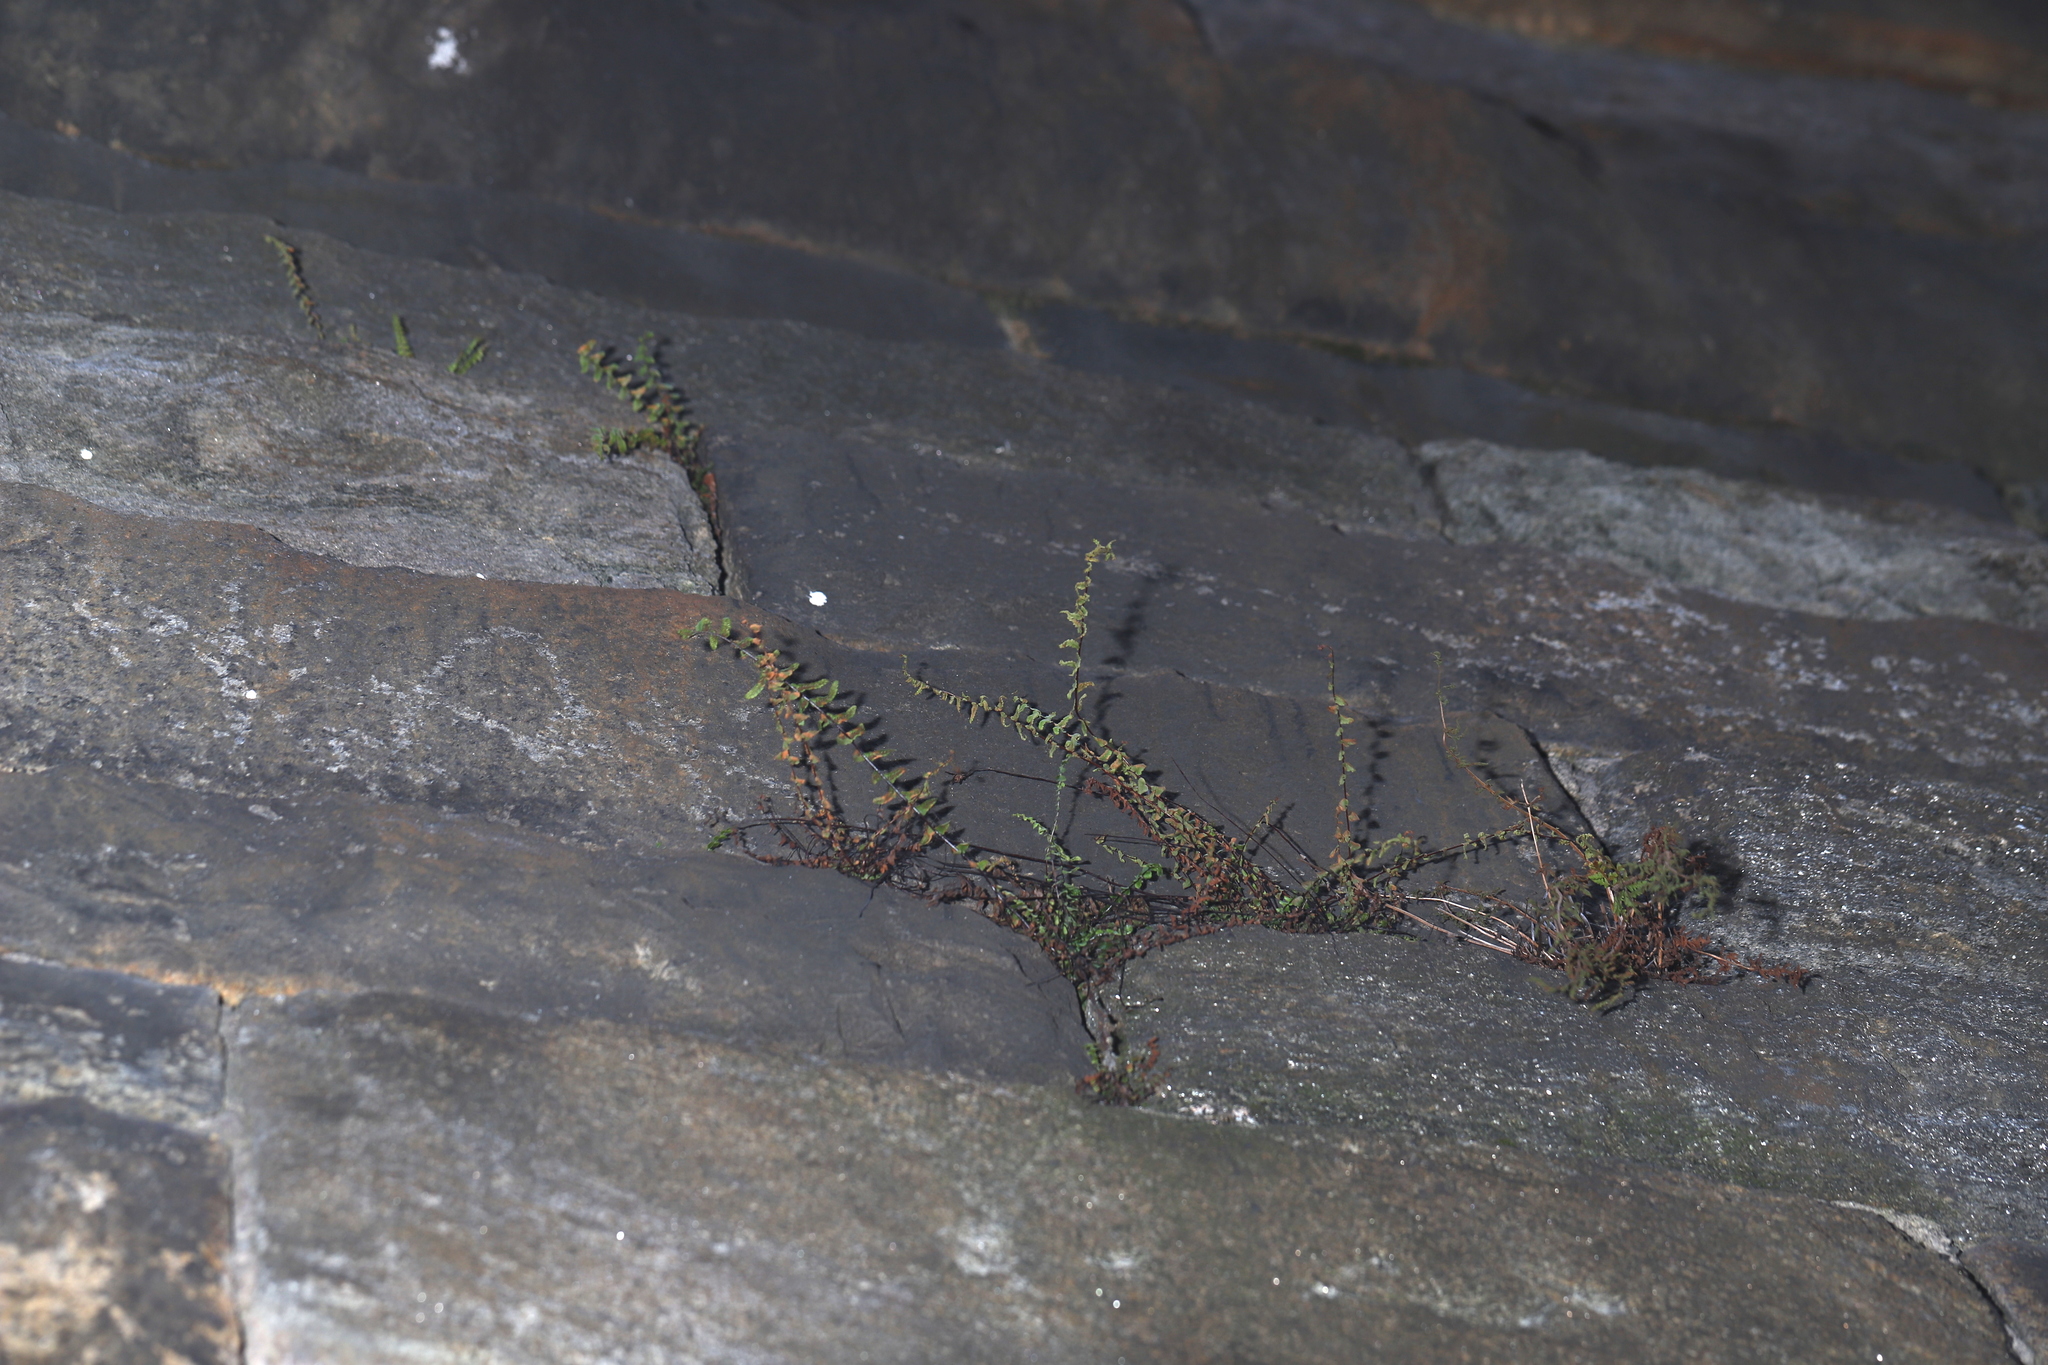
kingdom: Plantae
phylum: Tracheophyta
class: Polypodiopsida
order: Polypodiales
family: Aspleniaceae
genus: Asplenium
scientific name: Asplenium platyneuron
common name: Ebony spleenwort
